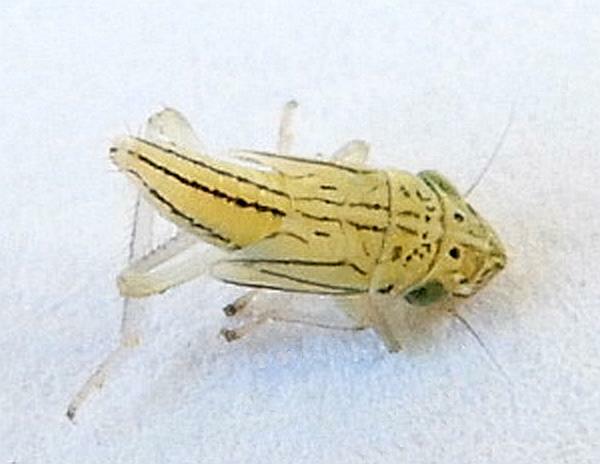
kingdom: Animalia
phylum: Arthropoda
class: Insecta
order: Hemiptera
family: Cicadellidae
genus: Hortensia
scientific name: Hortensia similis
